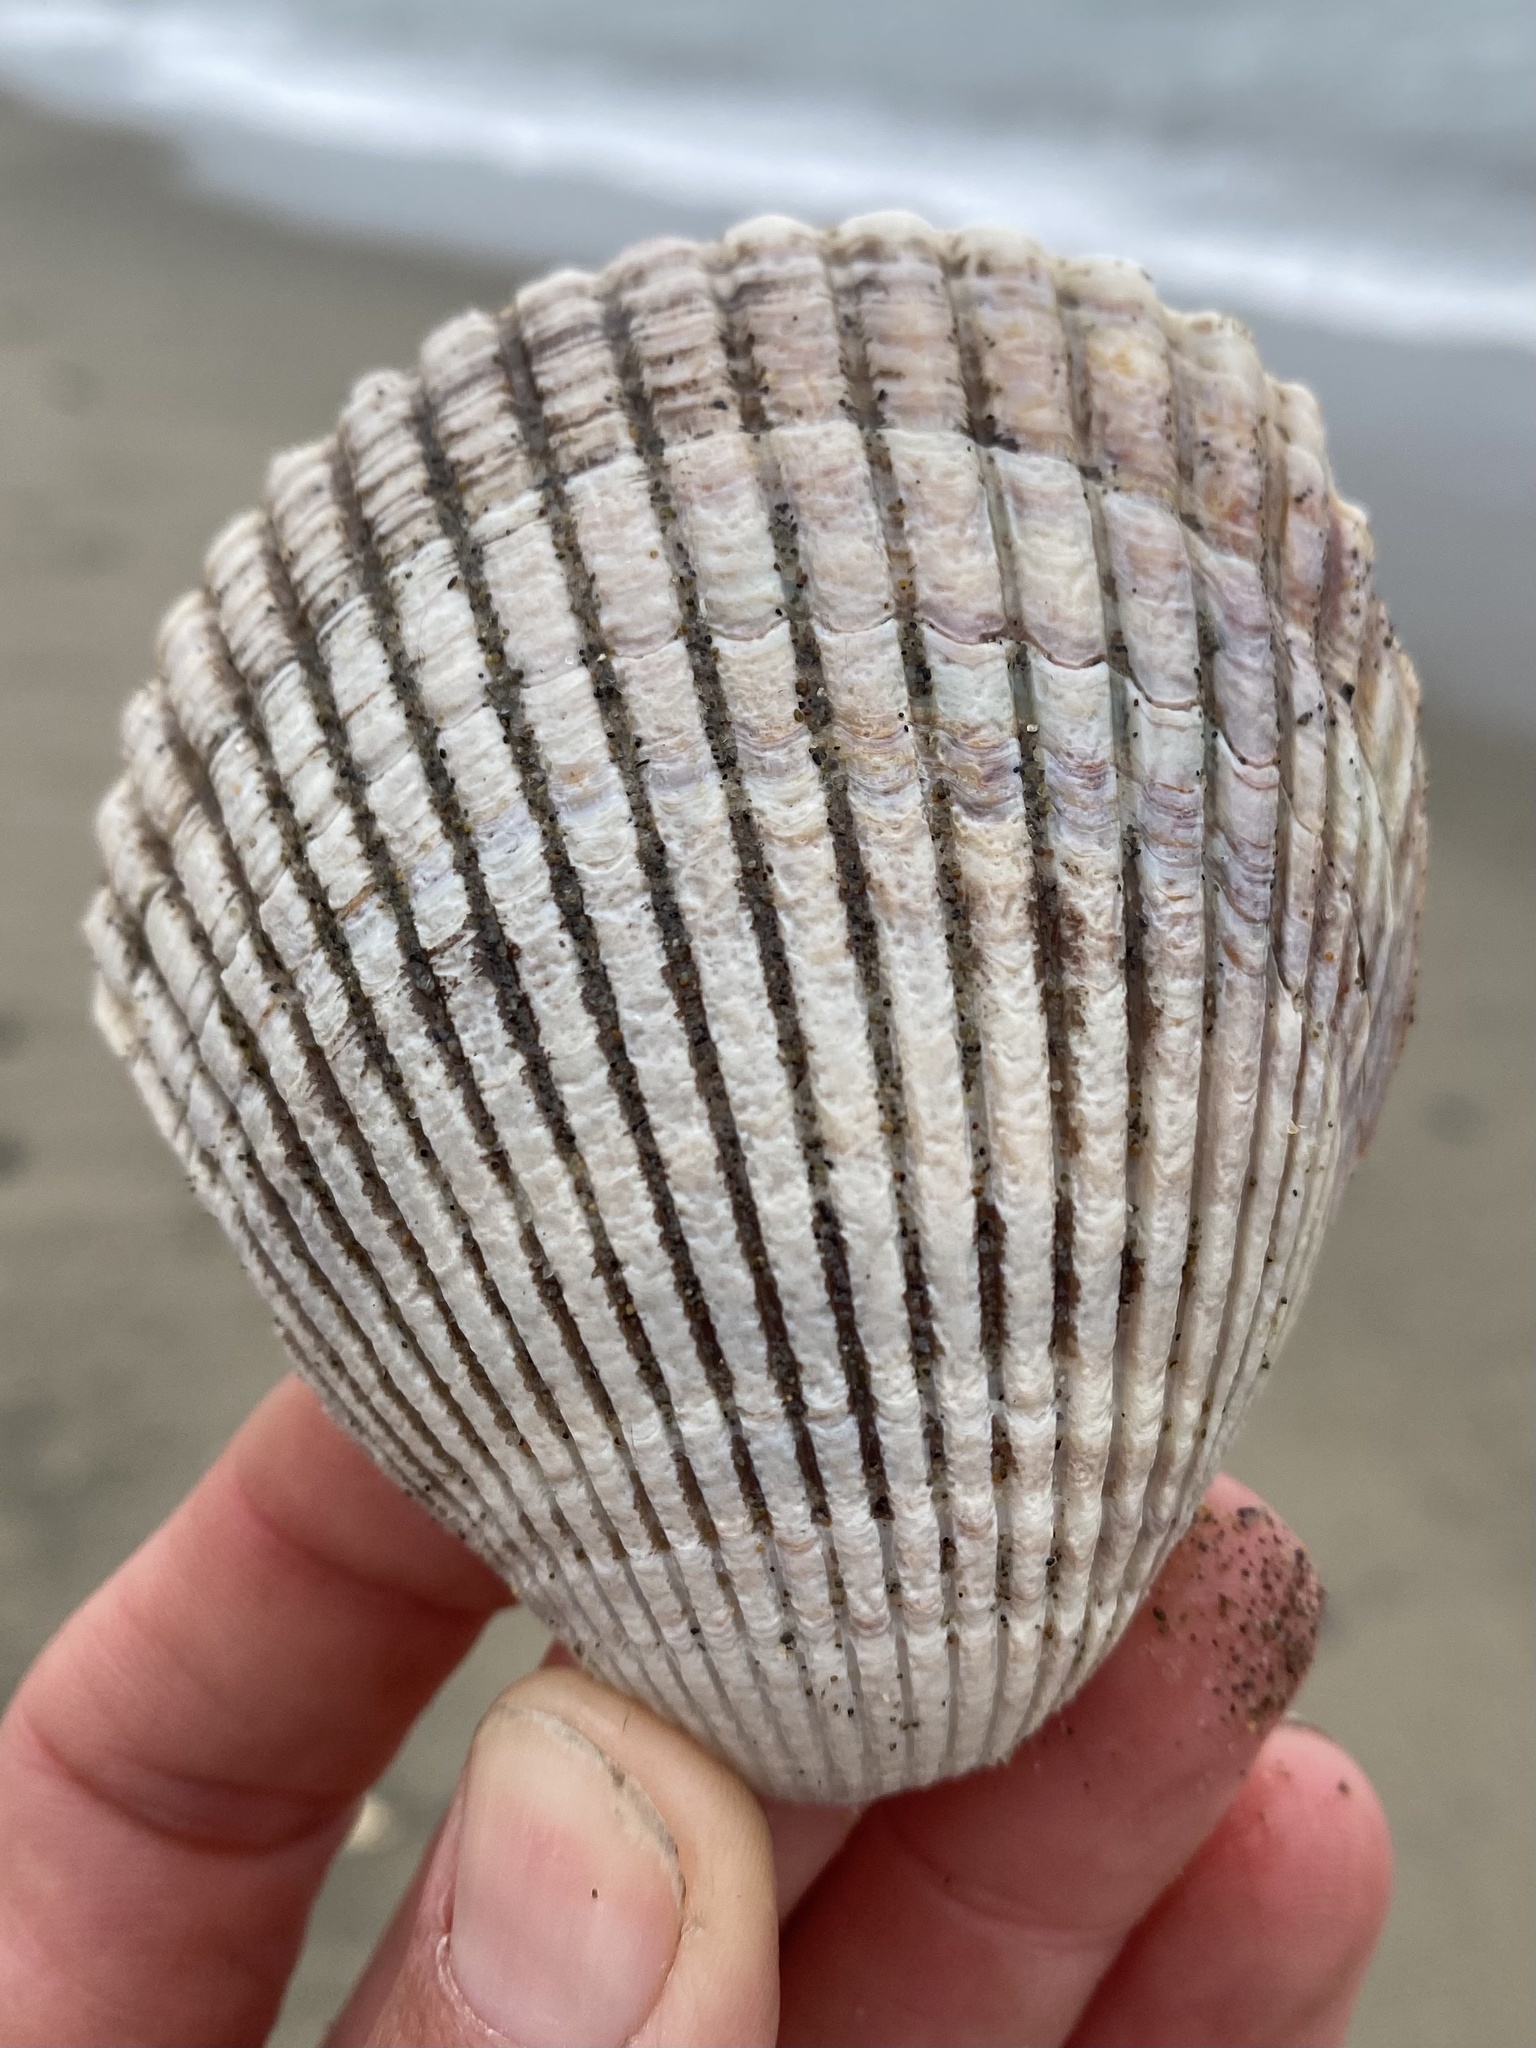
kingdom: Animalia
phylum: Mollusca
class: Bivalvia
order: Cardiida
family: Cardiidae
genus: Clinocardium
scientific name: Clinocardium nuttallii
